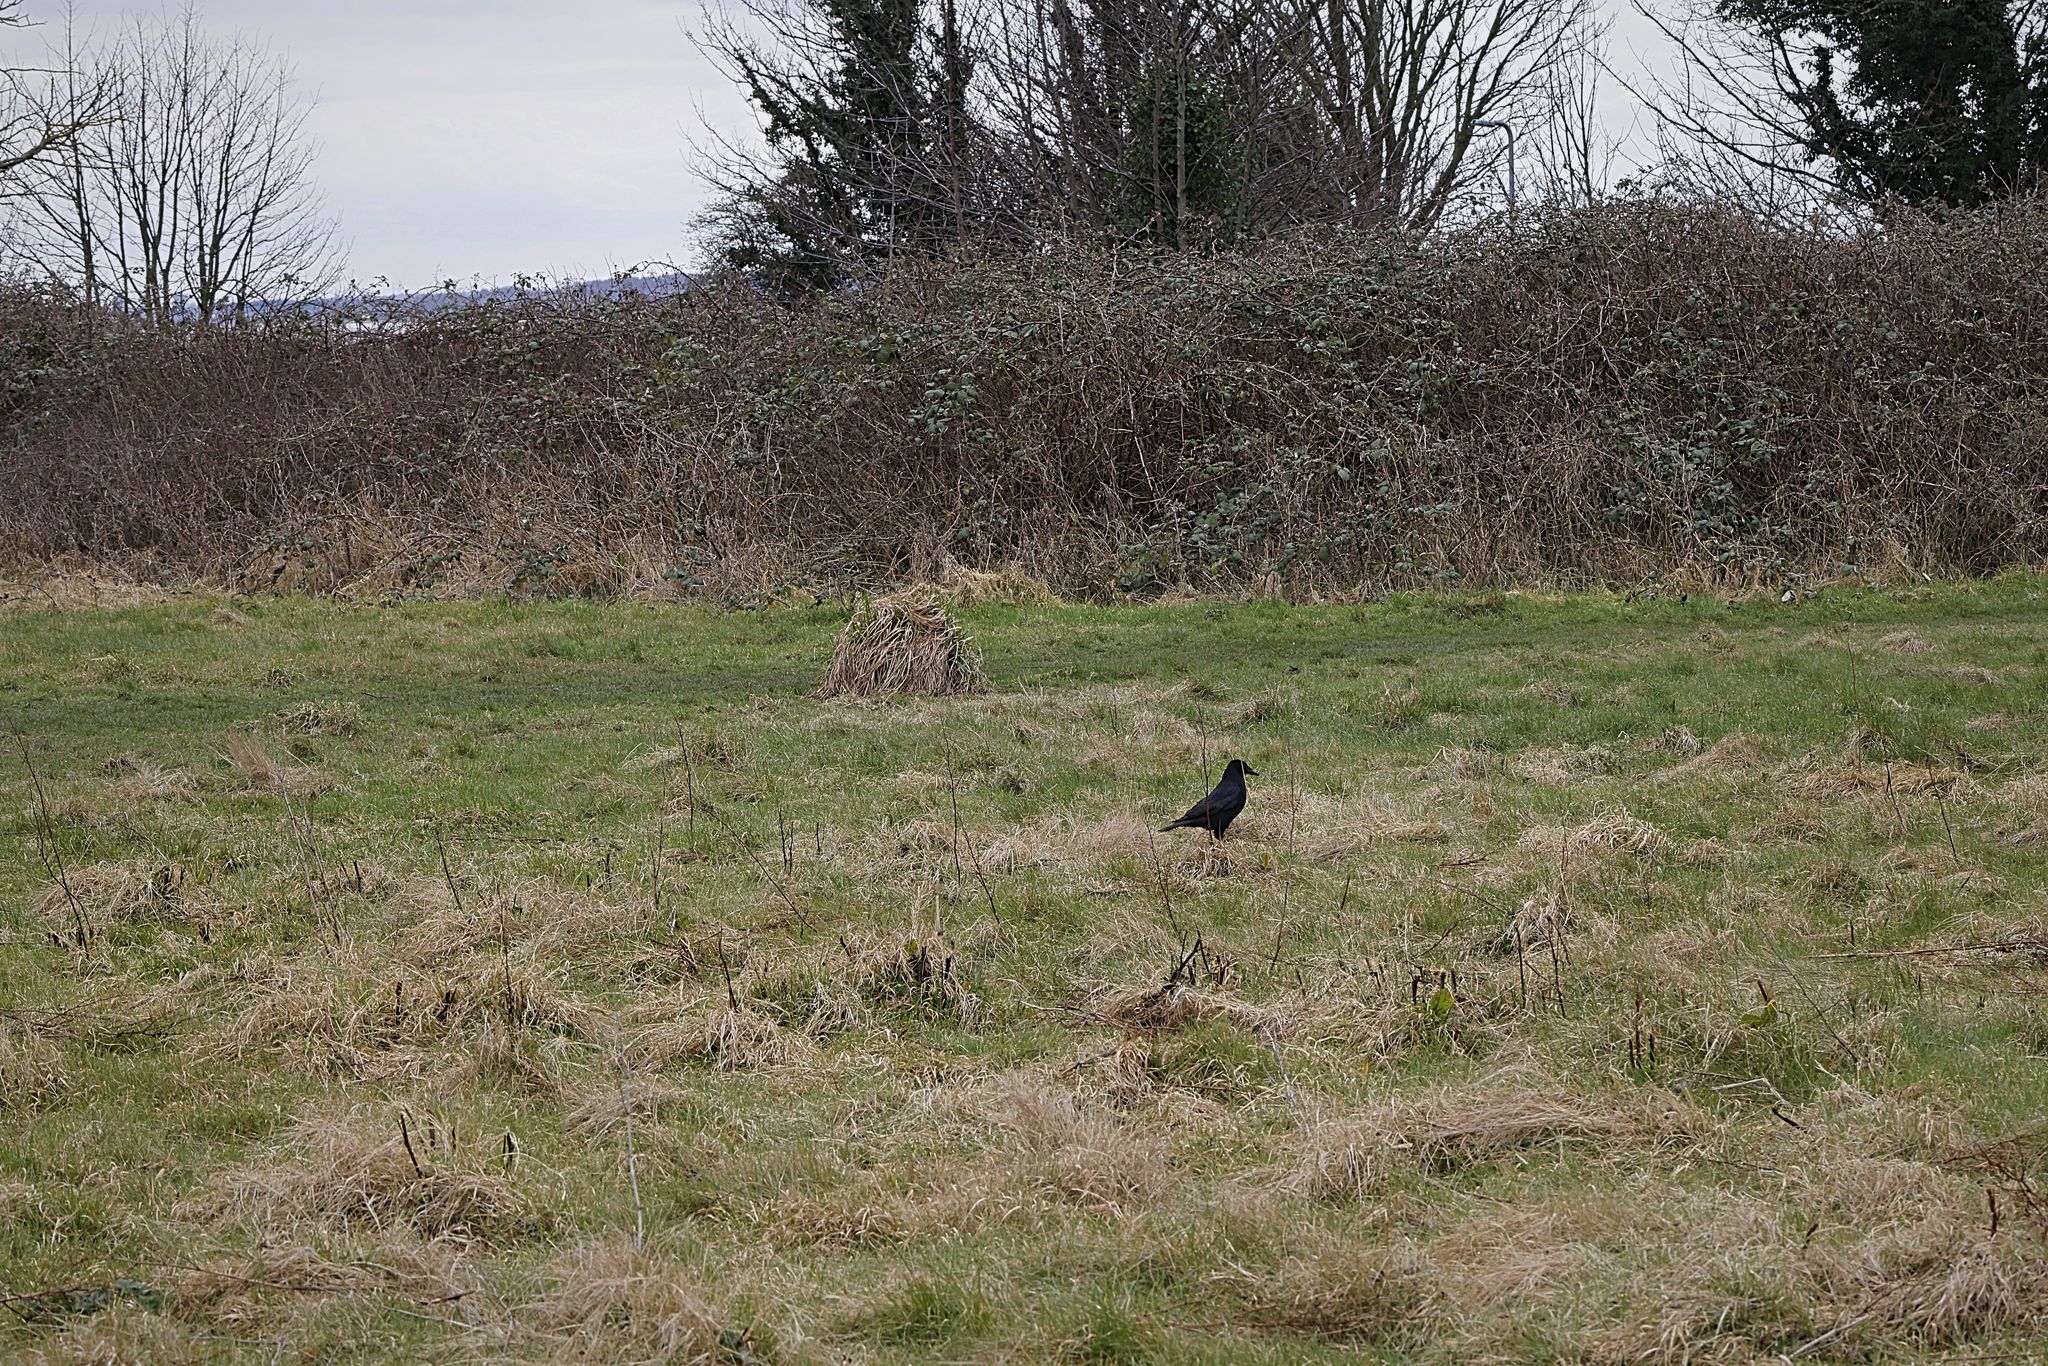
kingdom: Animalia
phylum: Chordata
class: Aves
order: Passeriformes
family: Corvidae
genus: Corvus
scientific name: Corvus corone
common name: Carrion crow
